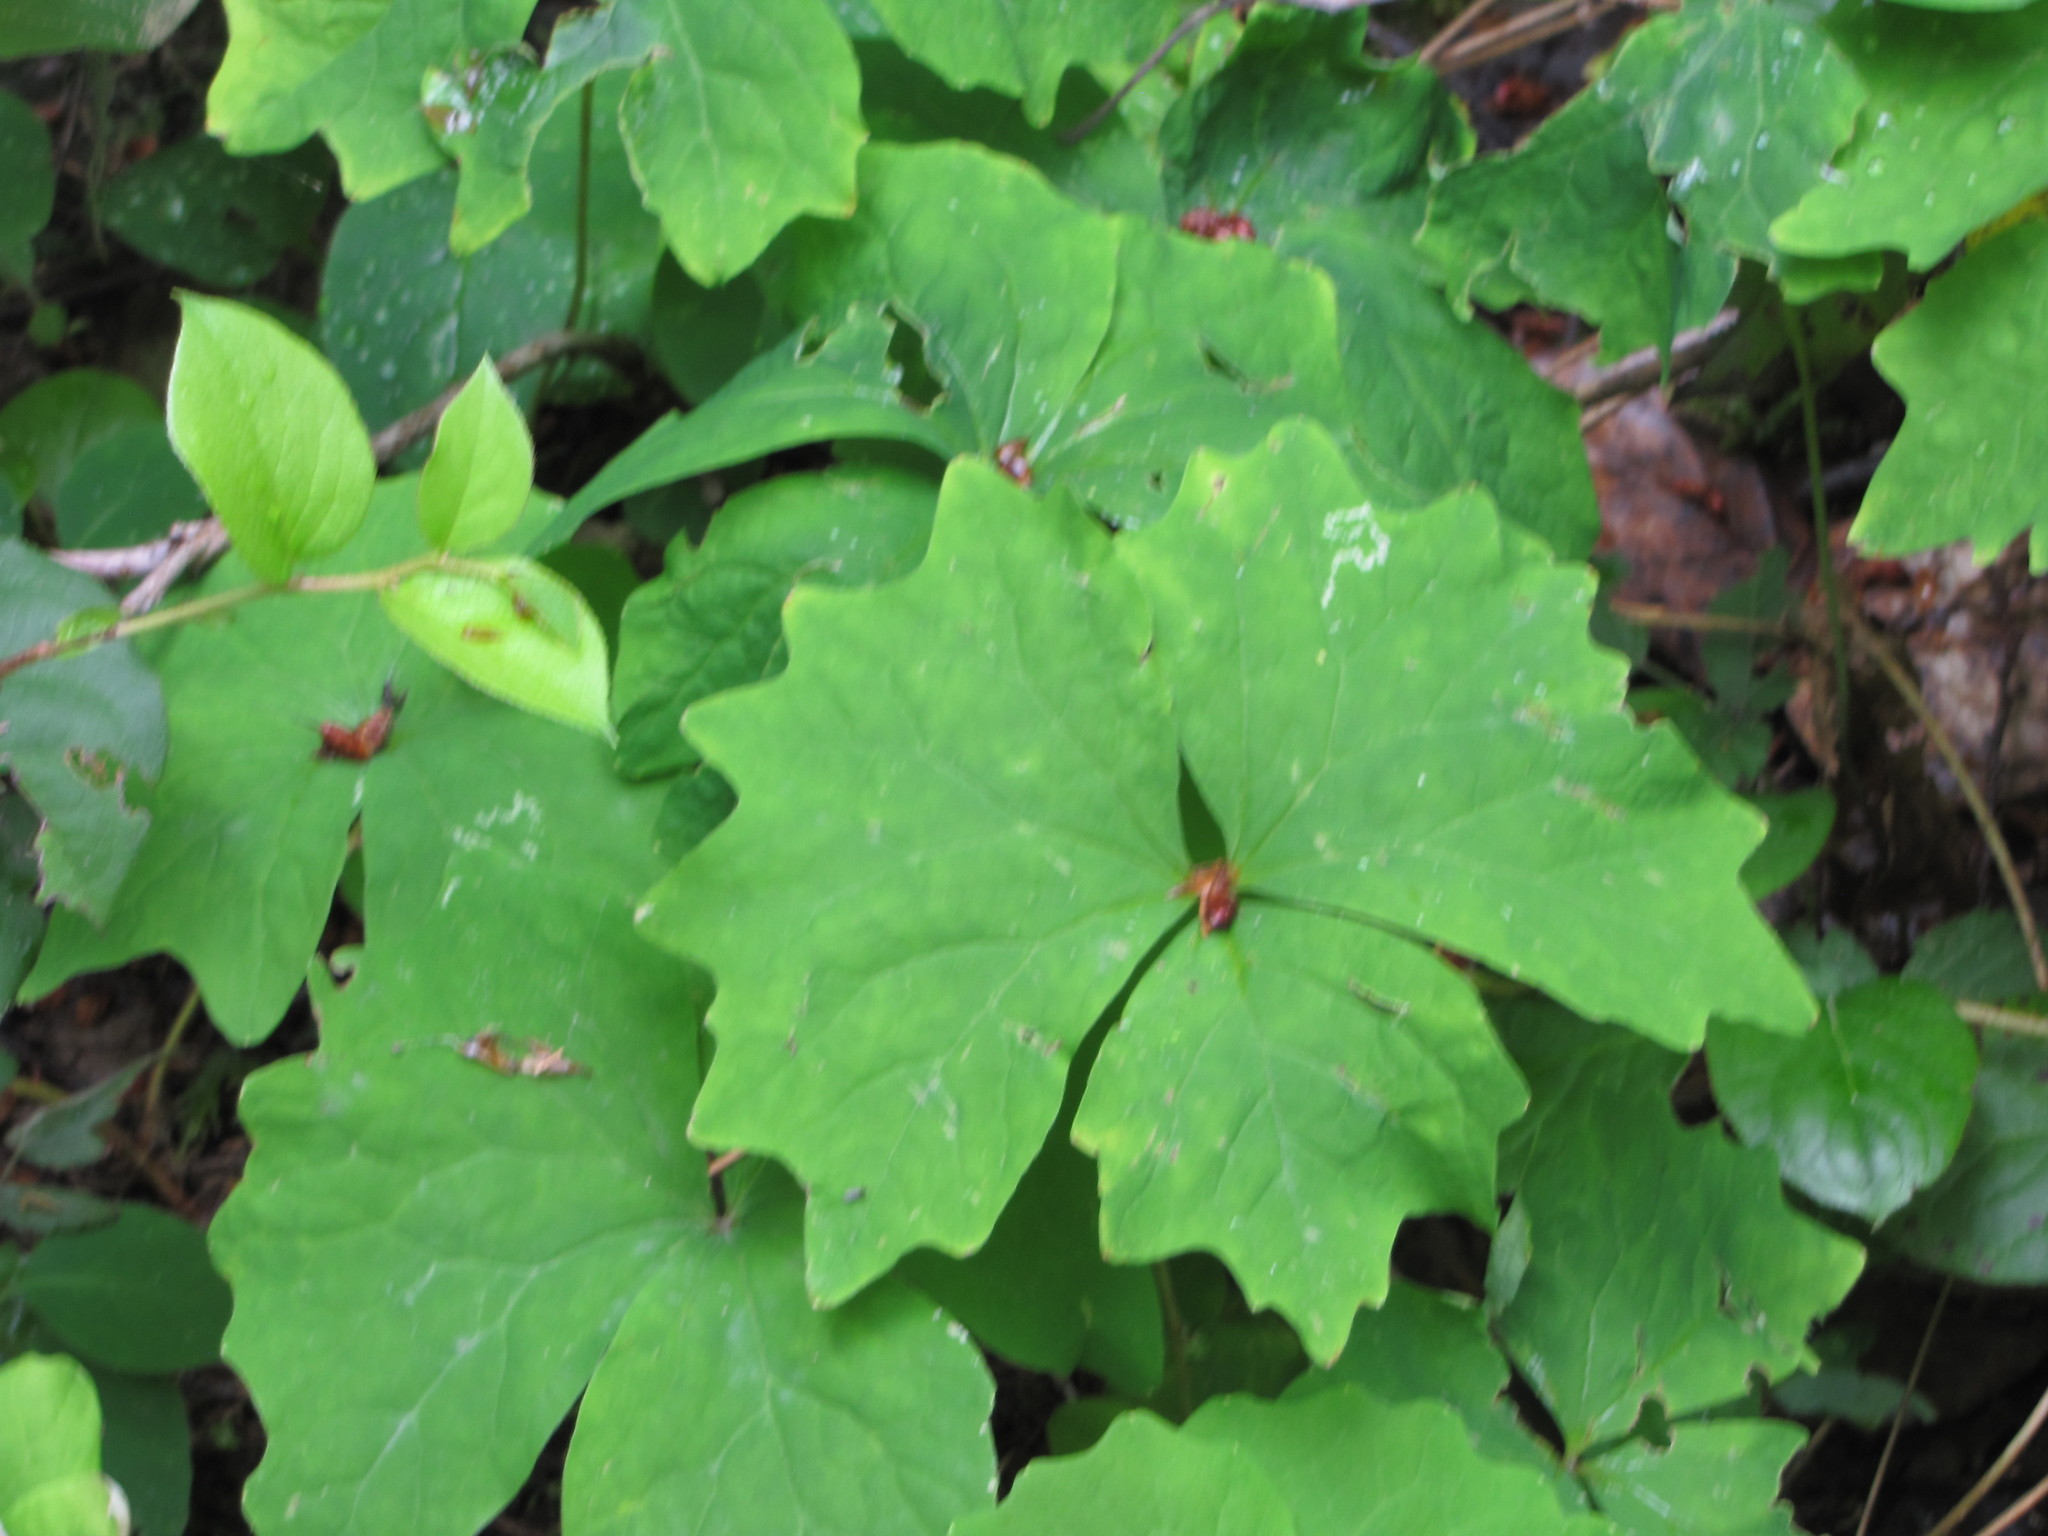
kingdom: Plantae
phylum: Tracheophyta
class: Magnoliopsida
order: Ranunculales
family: Berberidaceae
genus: Achlys
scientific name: Achlys triphylla
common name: Vanilla-leaf
